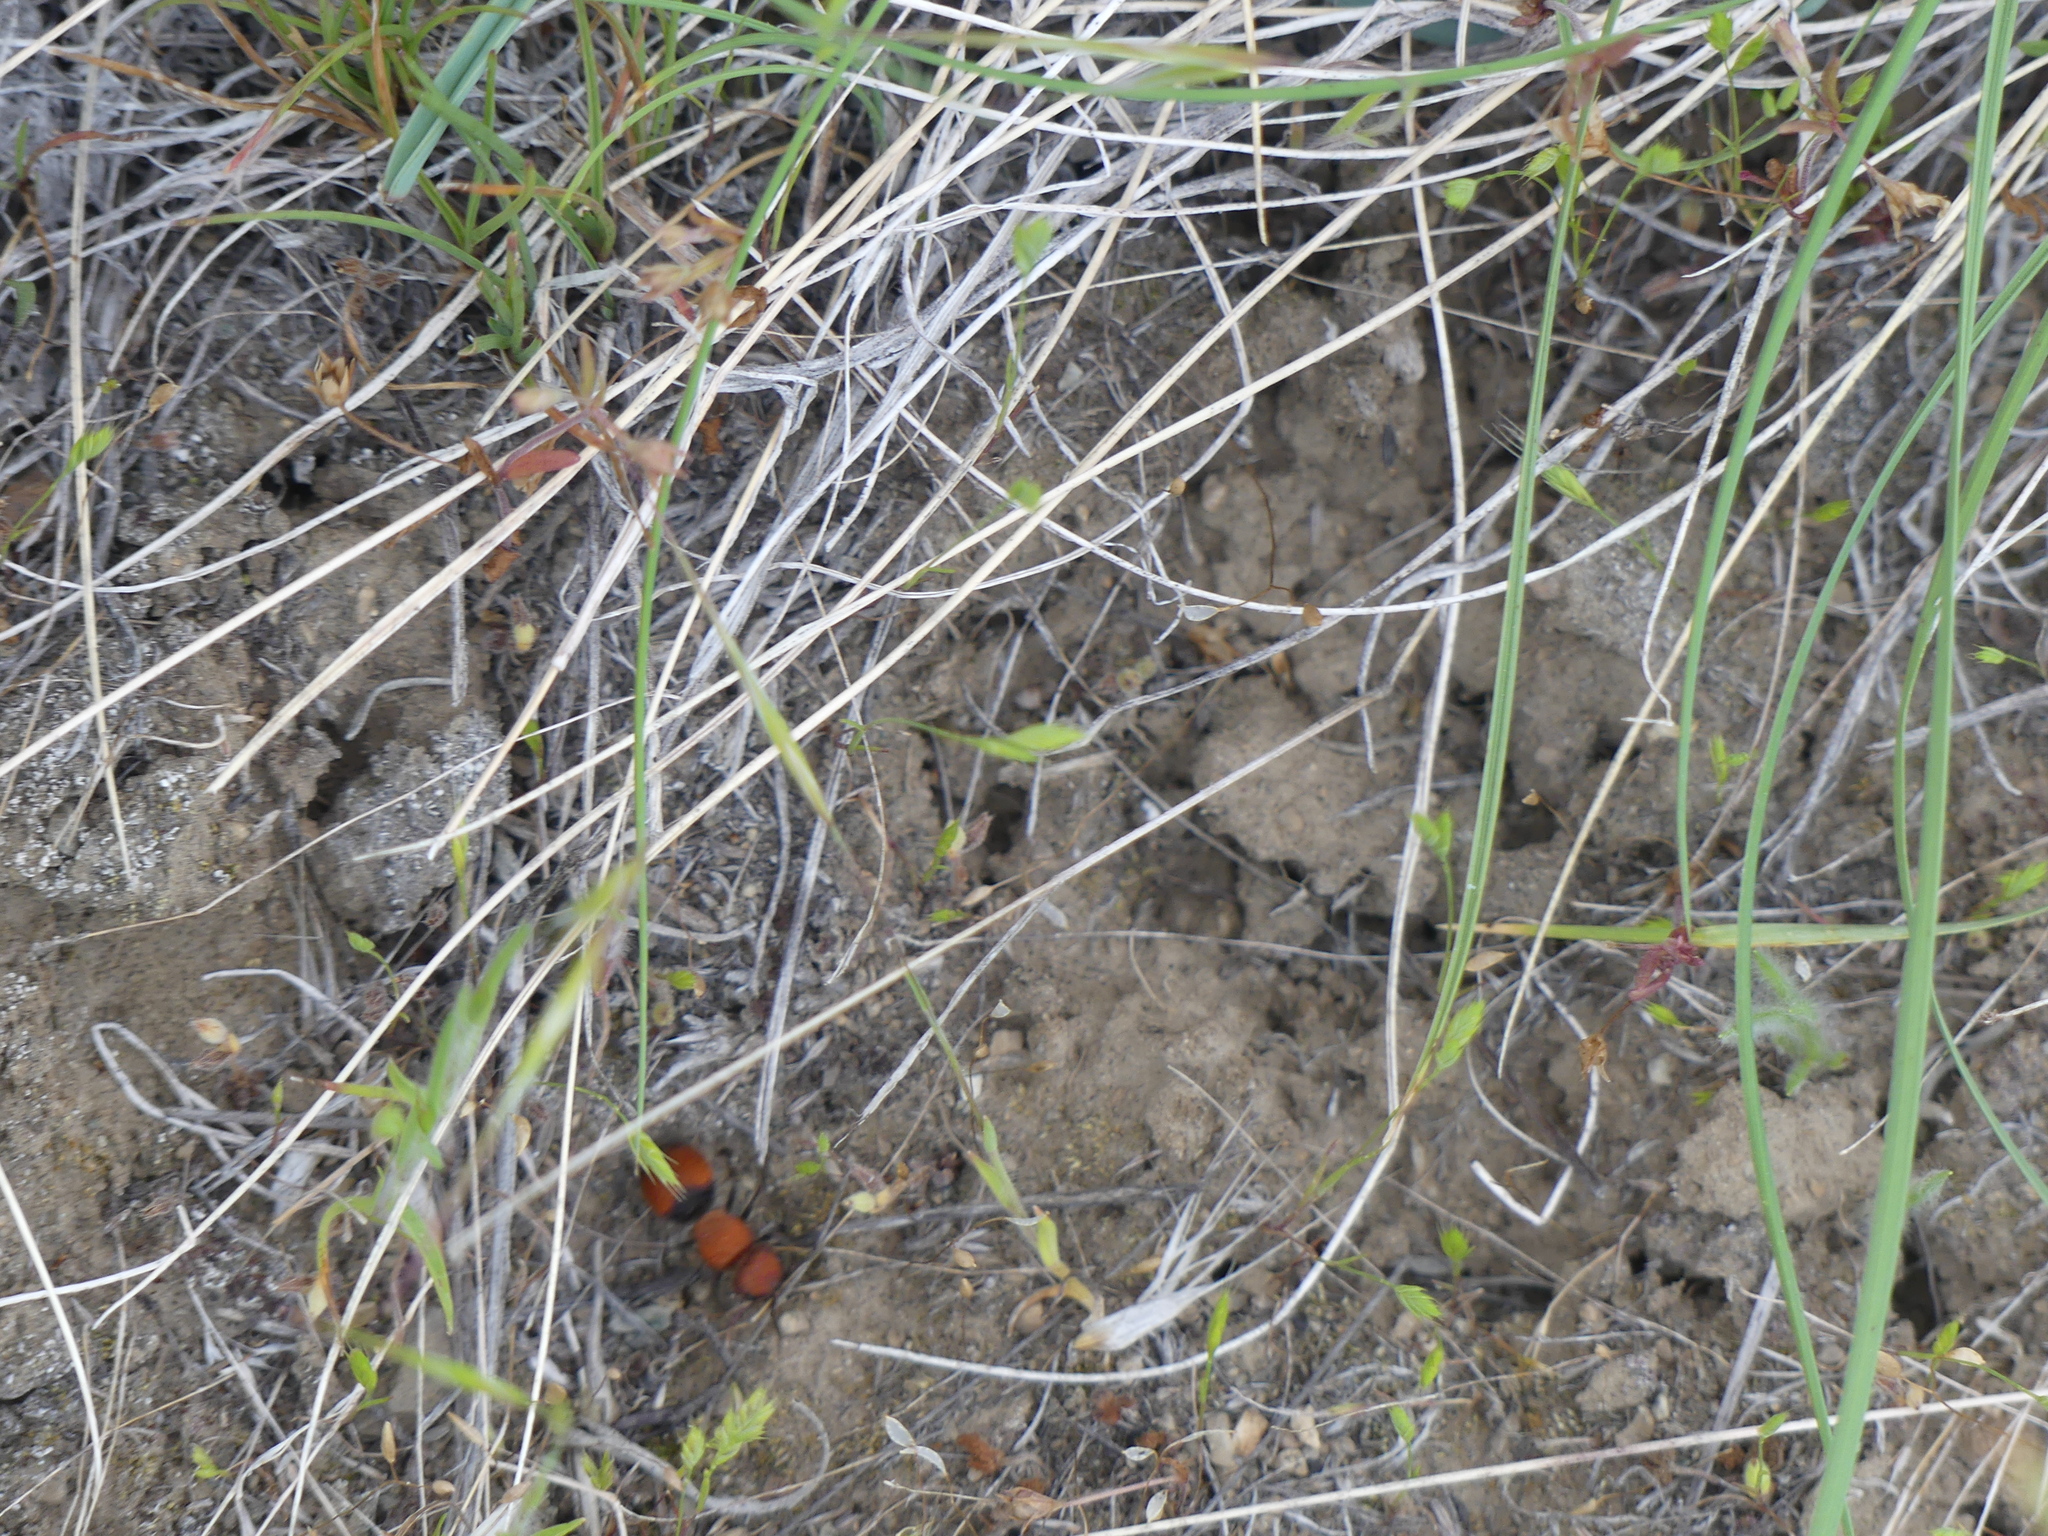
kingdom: Animalia
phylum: Arthropoda
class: Insecta
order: Hymenoptera
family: Mutillidae
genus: Pseudomethoca
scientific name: Pseudomethoca
